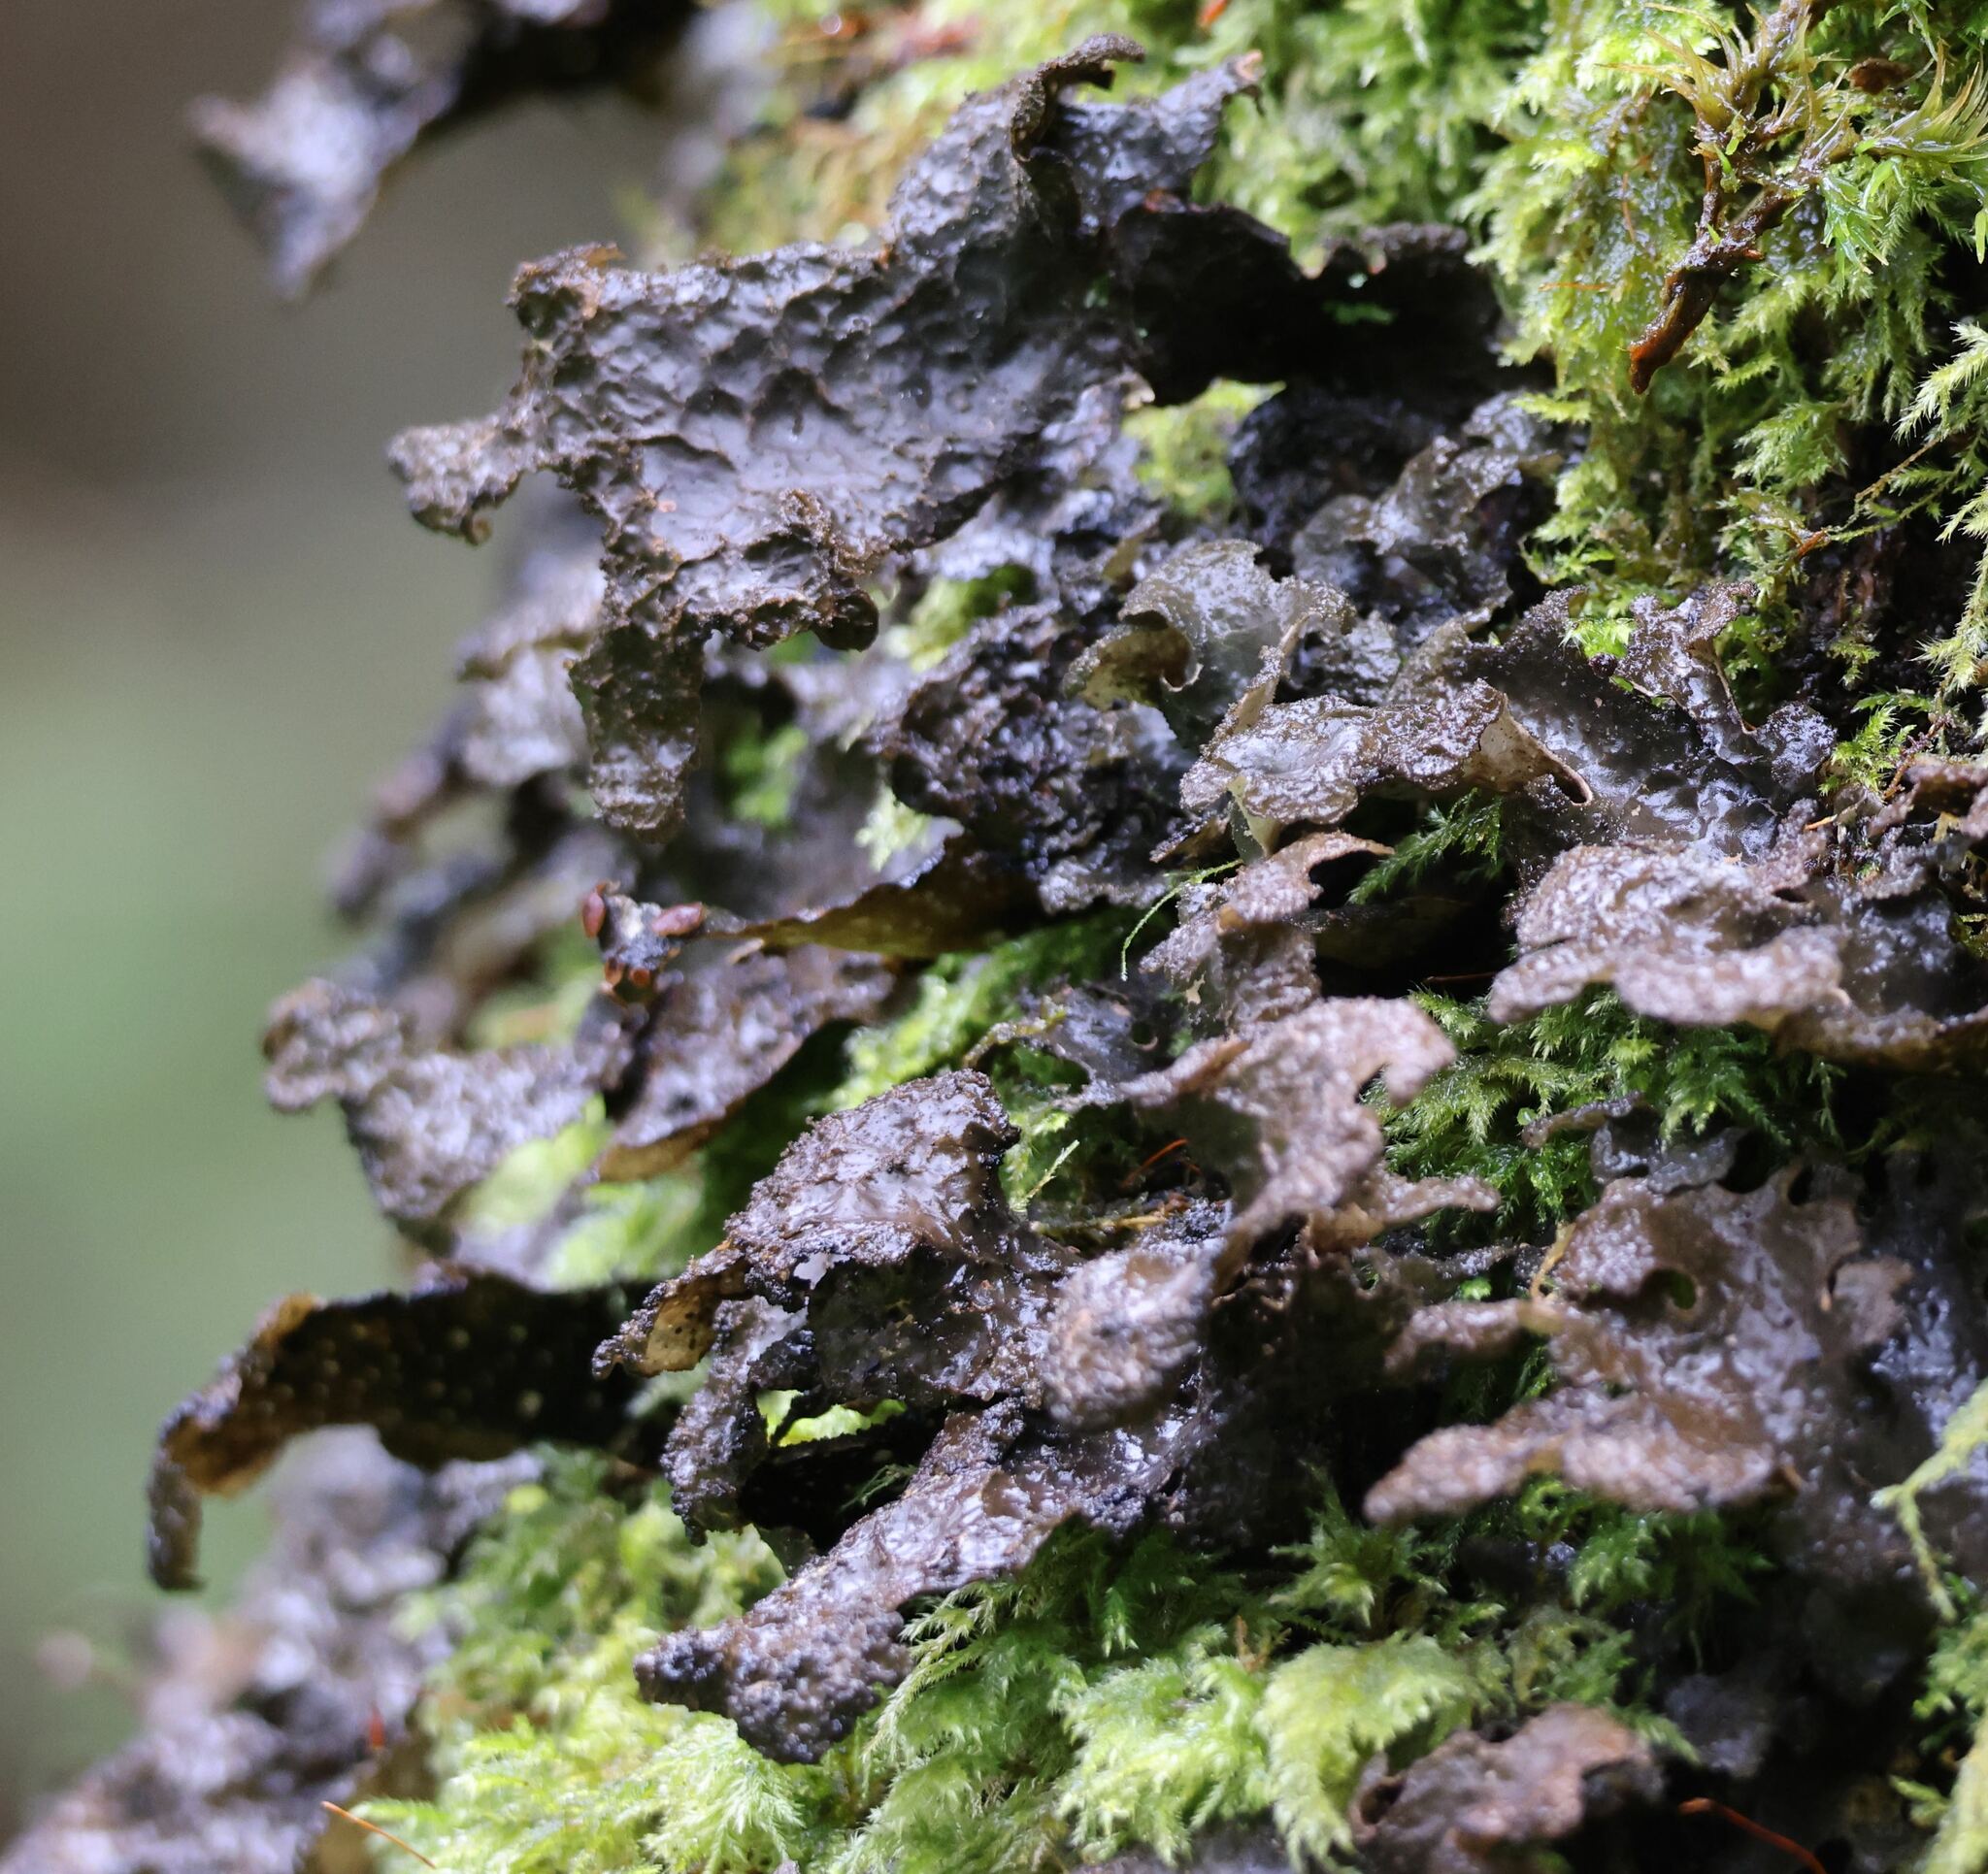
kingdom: Fungi
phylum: Ascomycota
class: Lecanoromycetes
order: Peltigerales
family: Lobariaceae
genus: Sticta
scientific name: Sticta sylvatica
